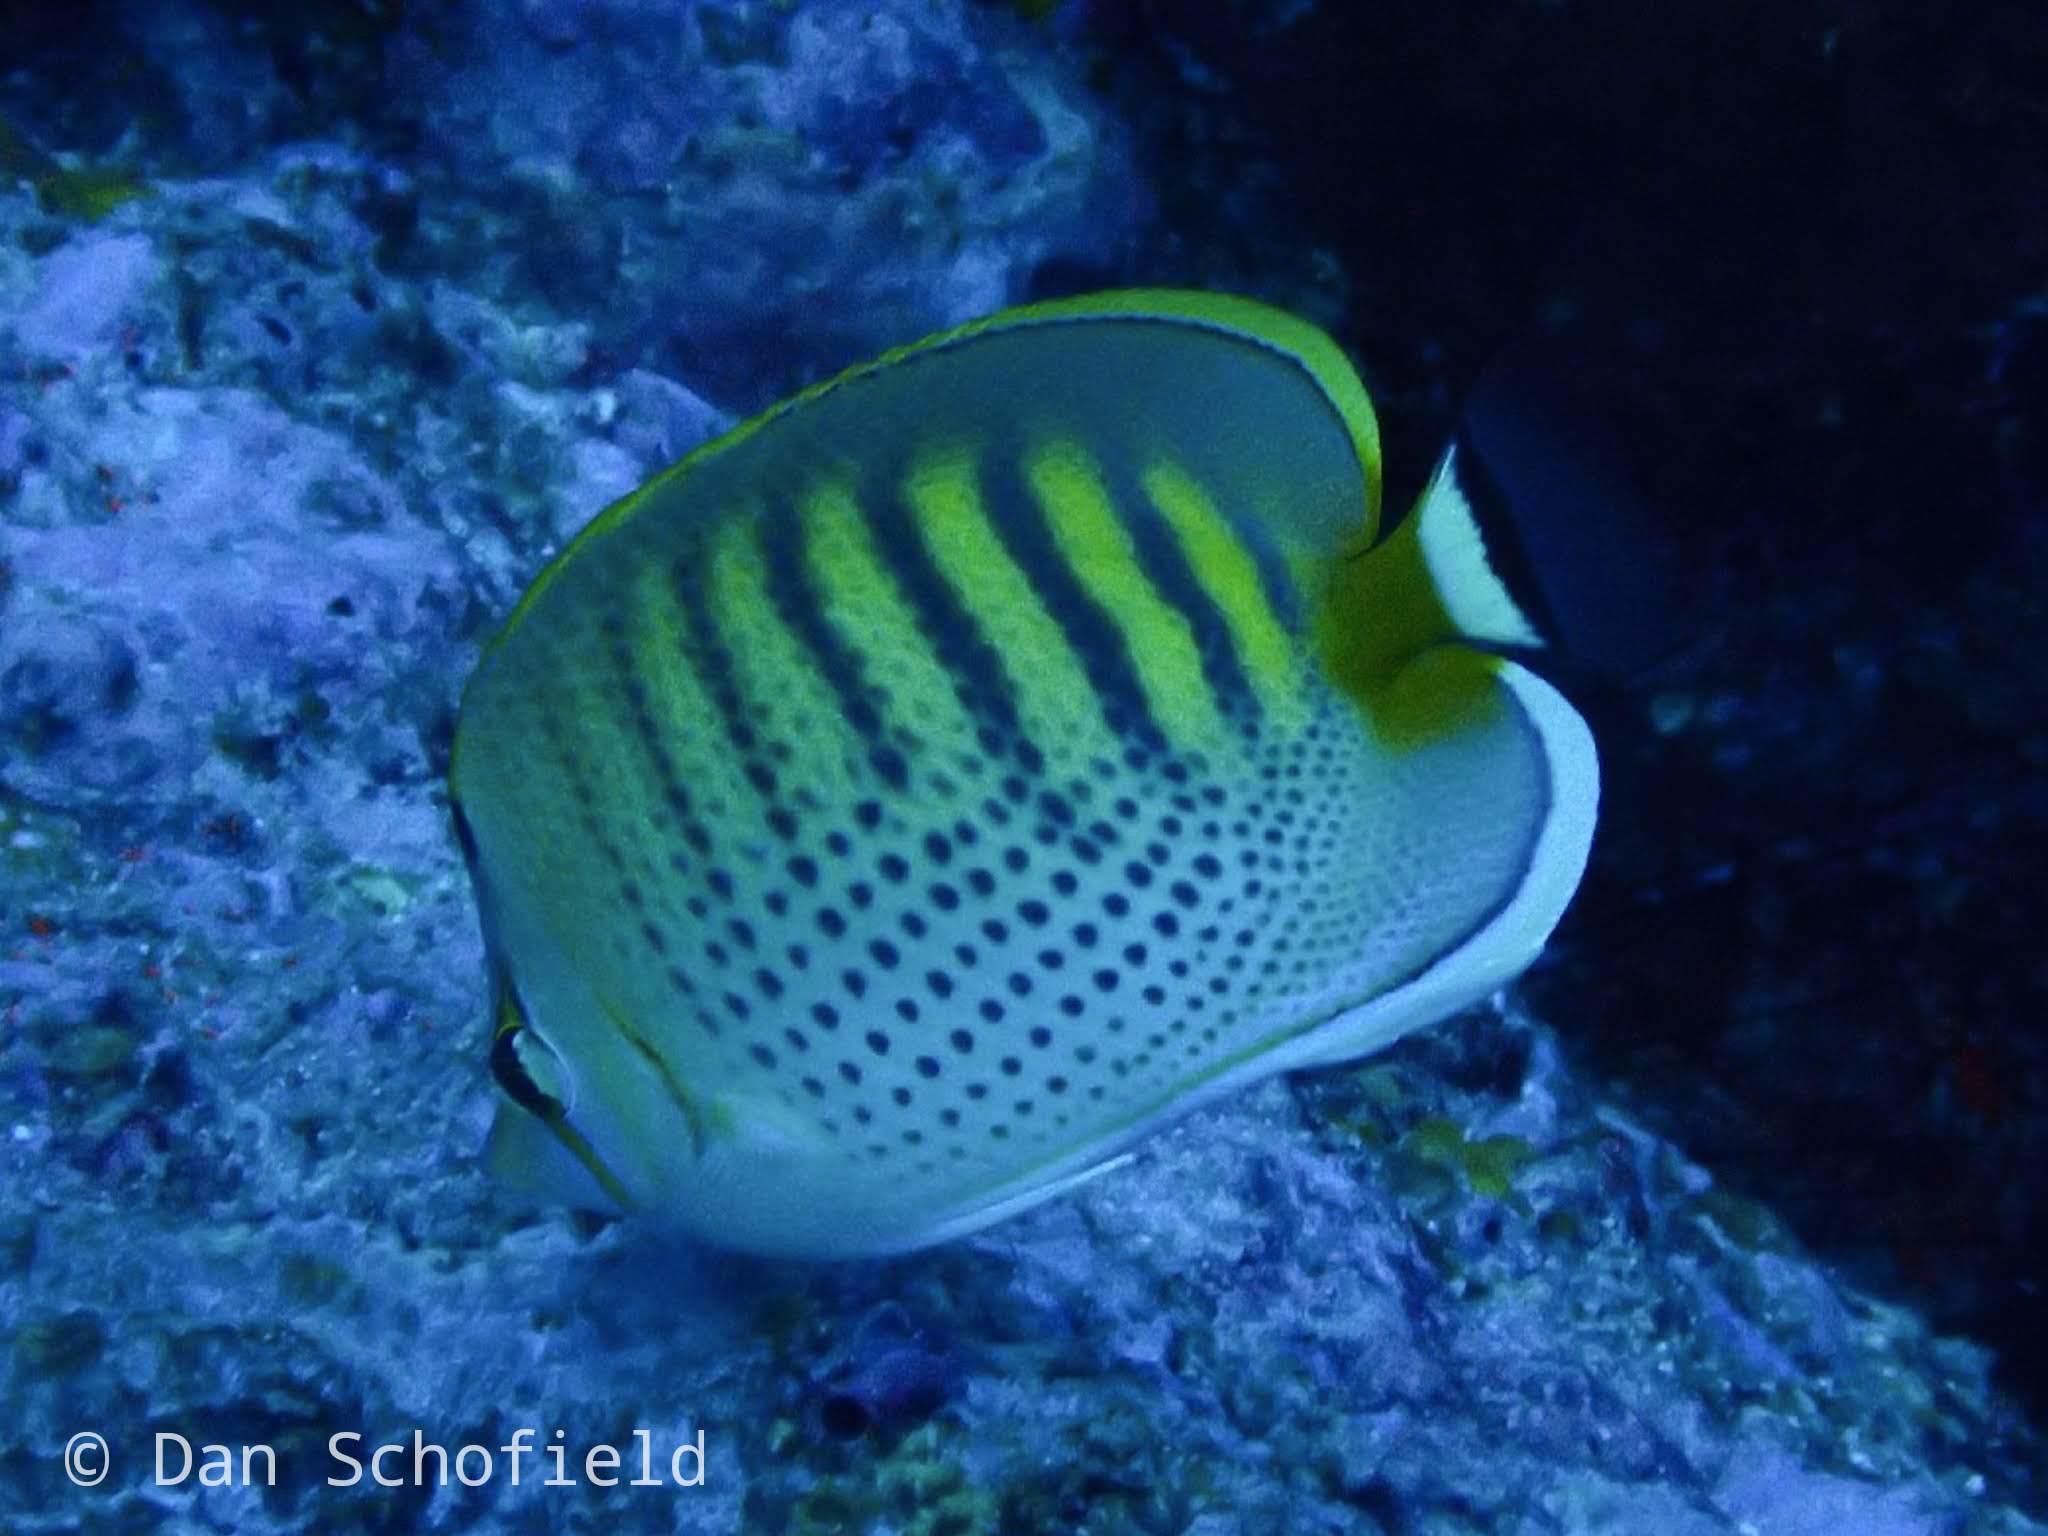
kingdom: Animalia
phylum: Chordata
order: Perciformes
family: Chaetodontidae
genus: Chaetodon
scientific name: Chaetodon punctatofasciatus
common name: Spot-banded butterflyfish
